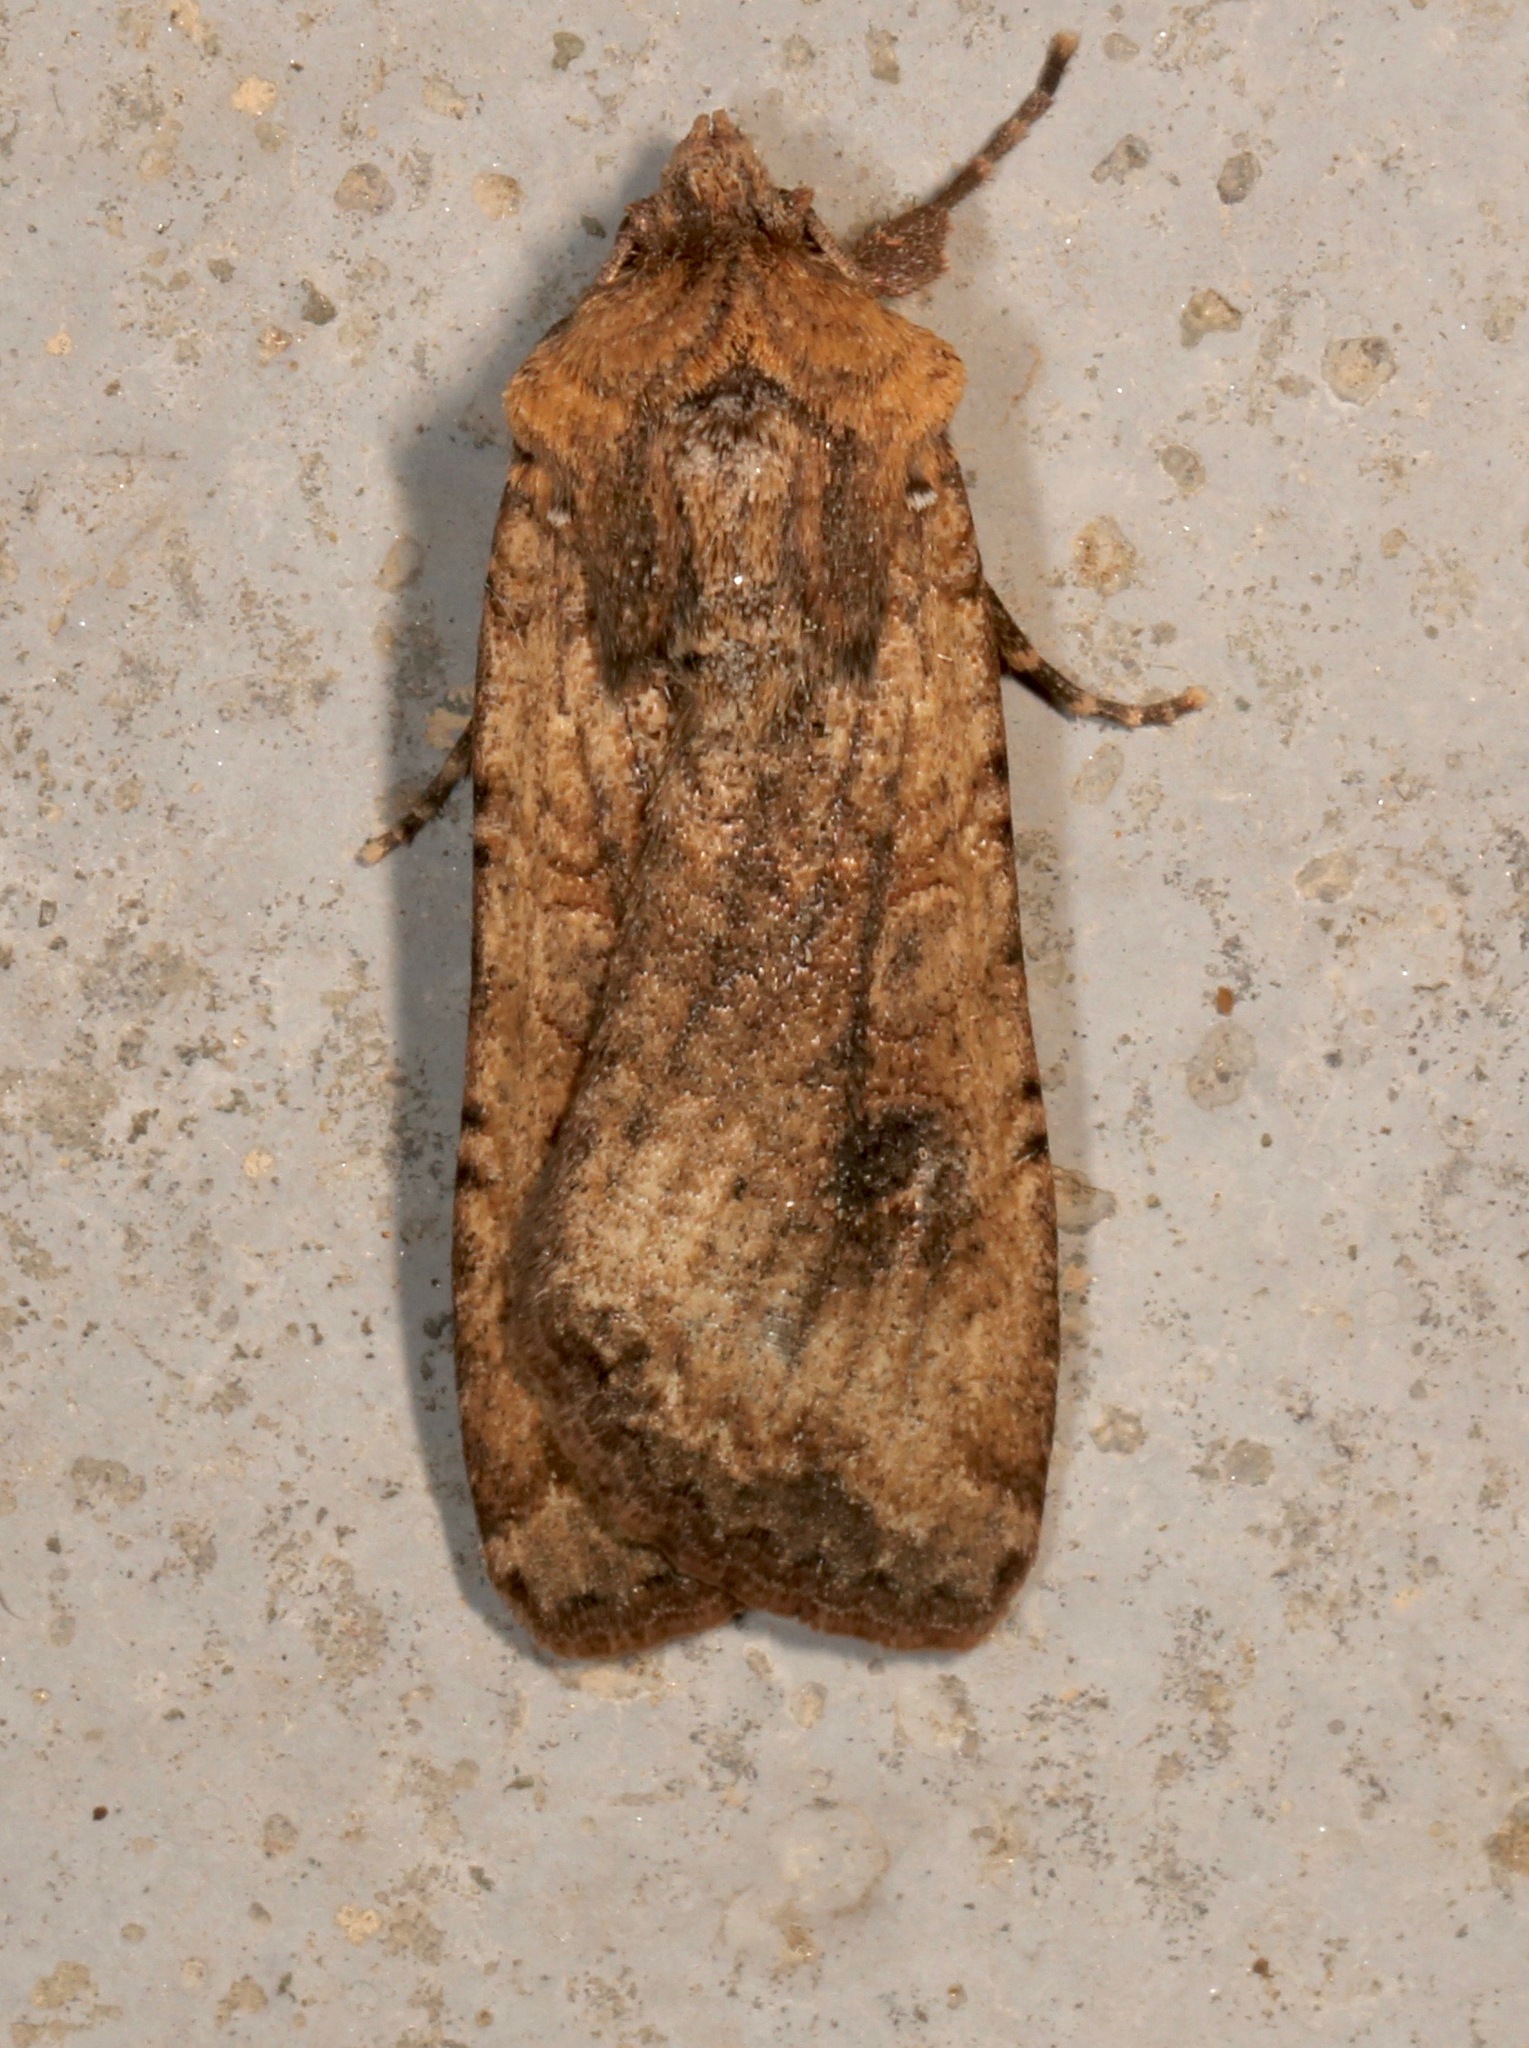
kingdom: Animalia
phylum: Arthropoda
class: Insecta
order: Lepidoptera
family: Noctuidae
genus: Peridroma
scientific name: Peridroma saucia
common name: Pearly underwing
